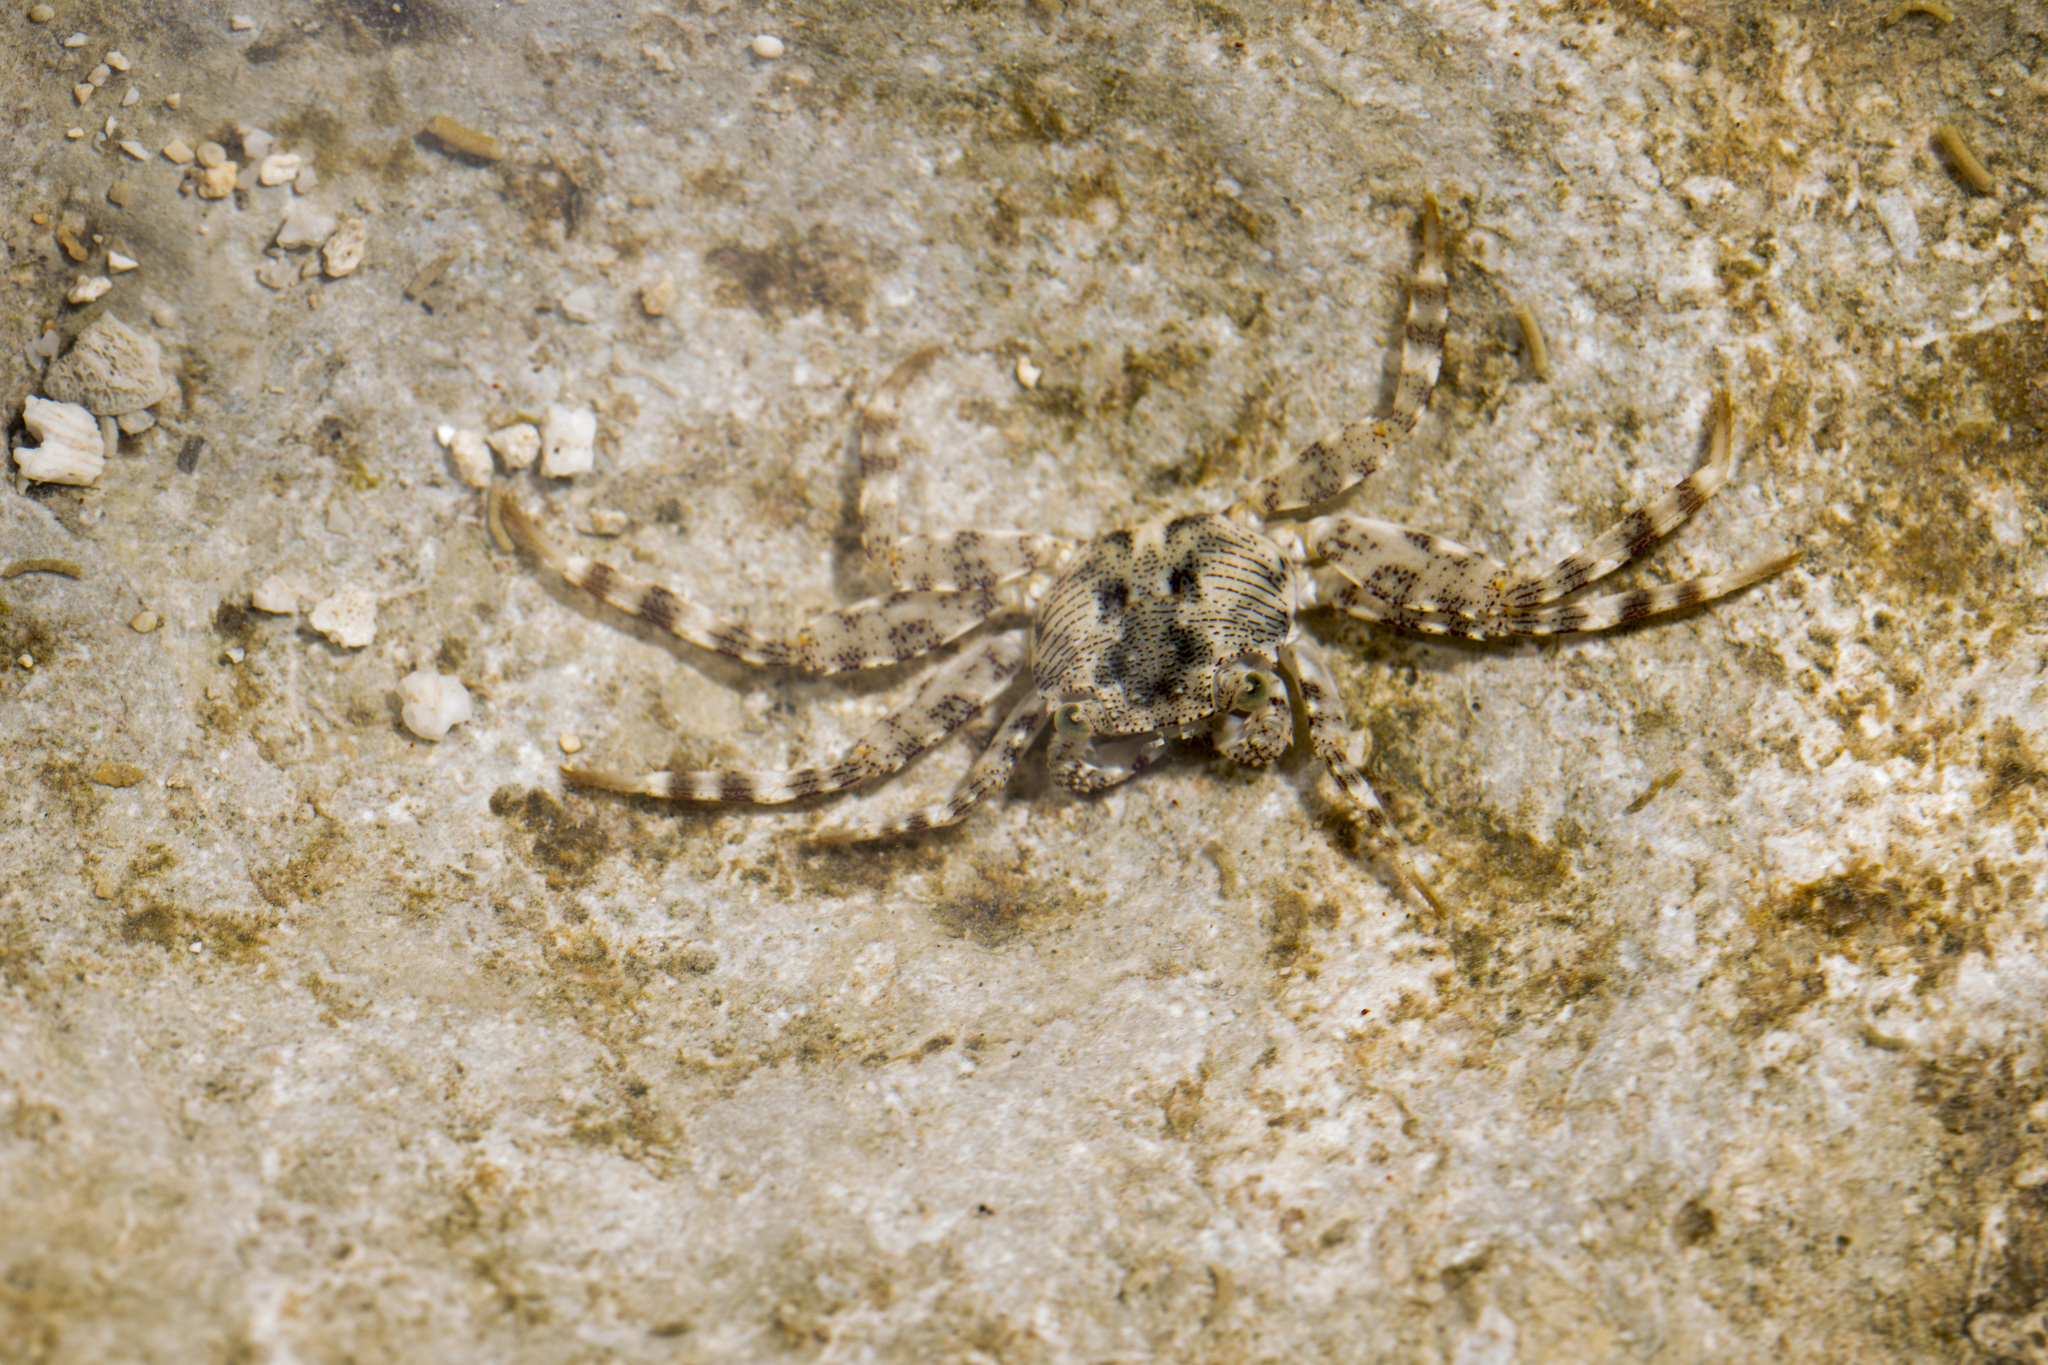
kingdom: Animalia
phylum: Arthropoda
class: Malacostraca
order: Decapoda
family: Grapsidae
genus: Grapsus
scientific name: Grapsus longitarsis
